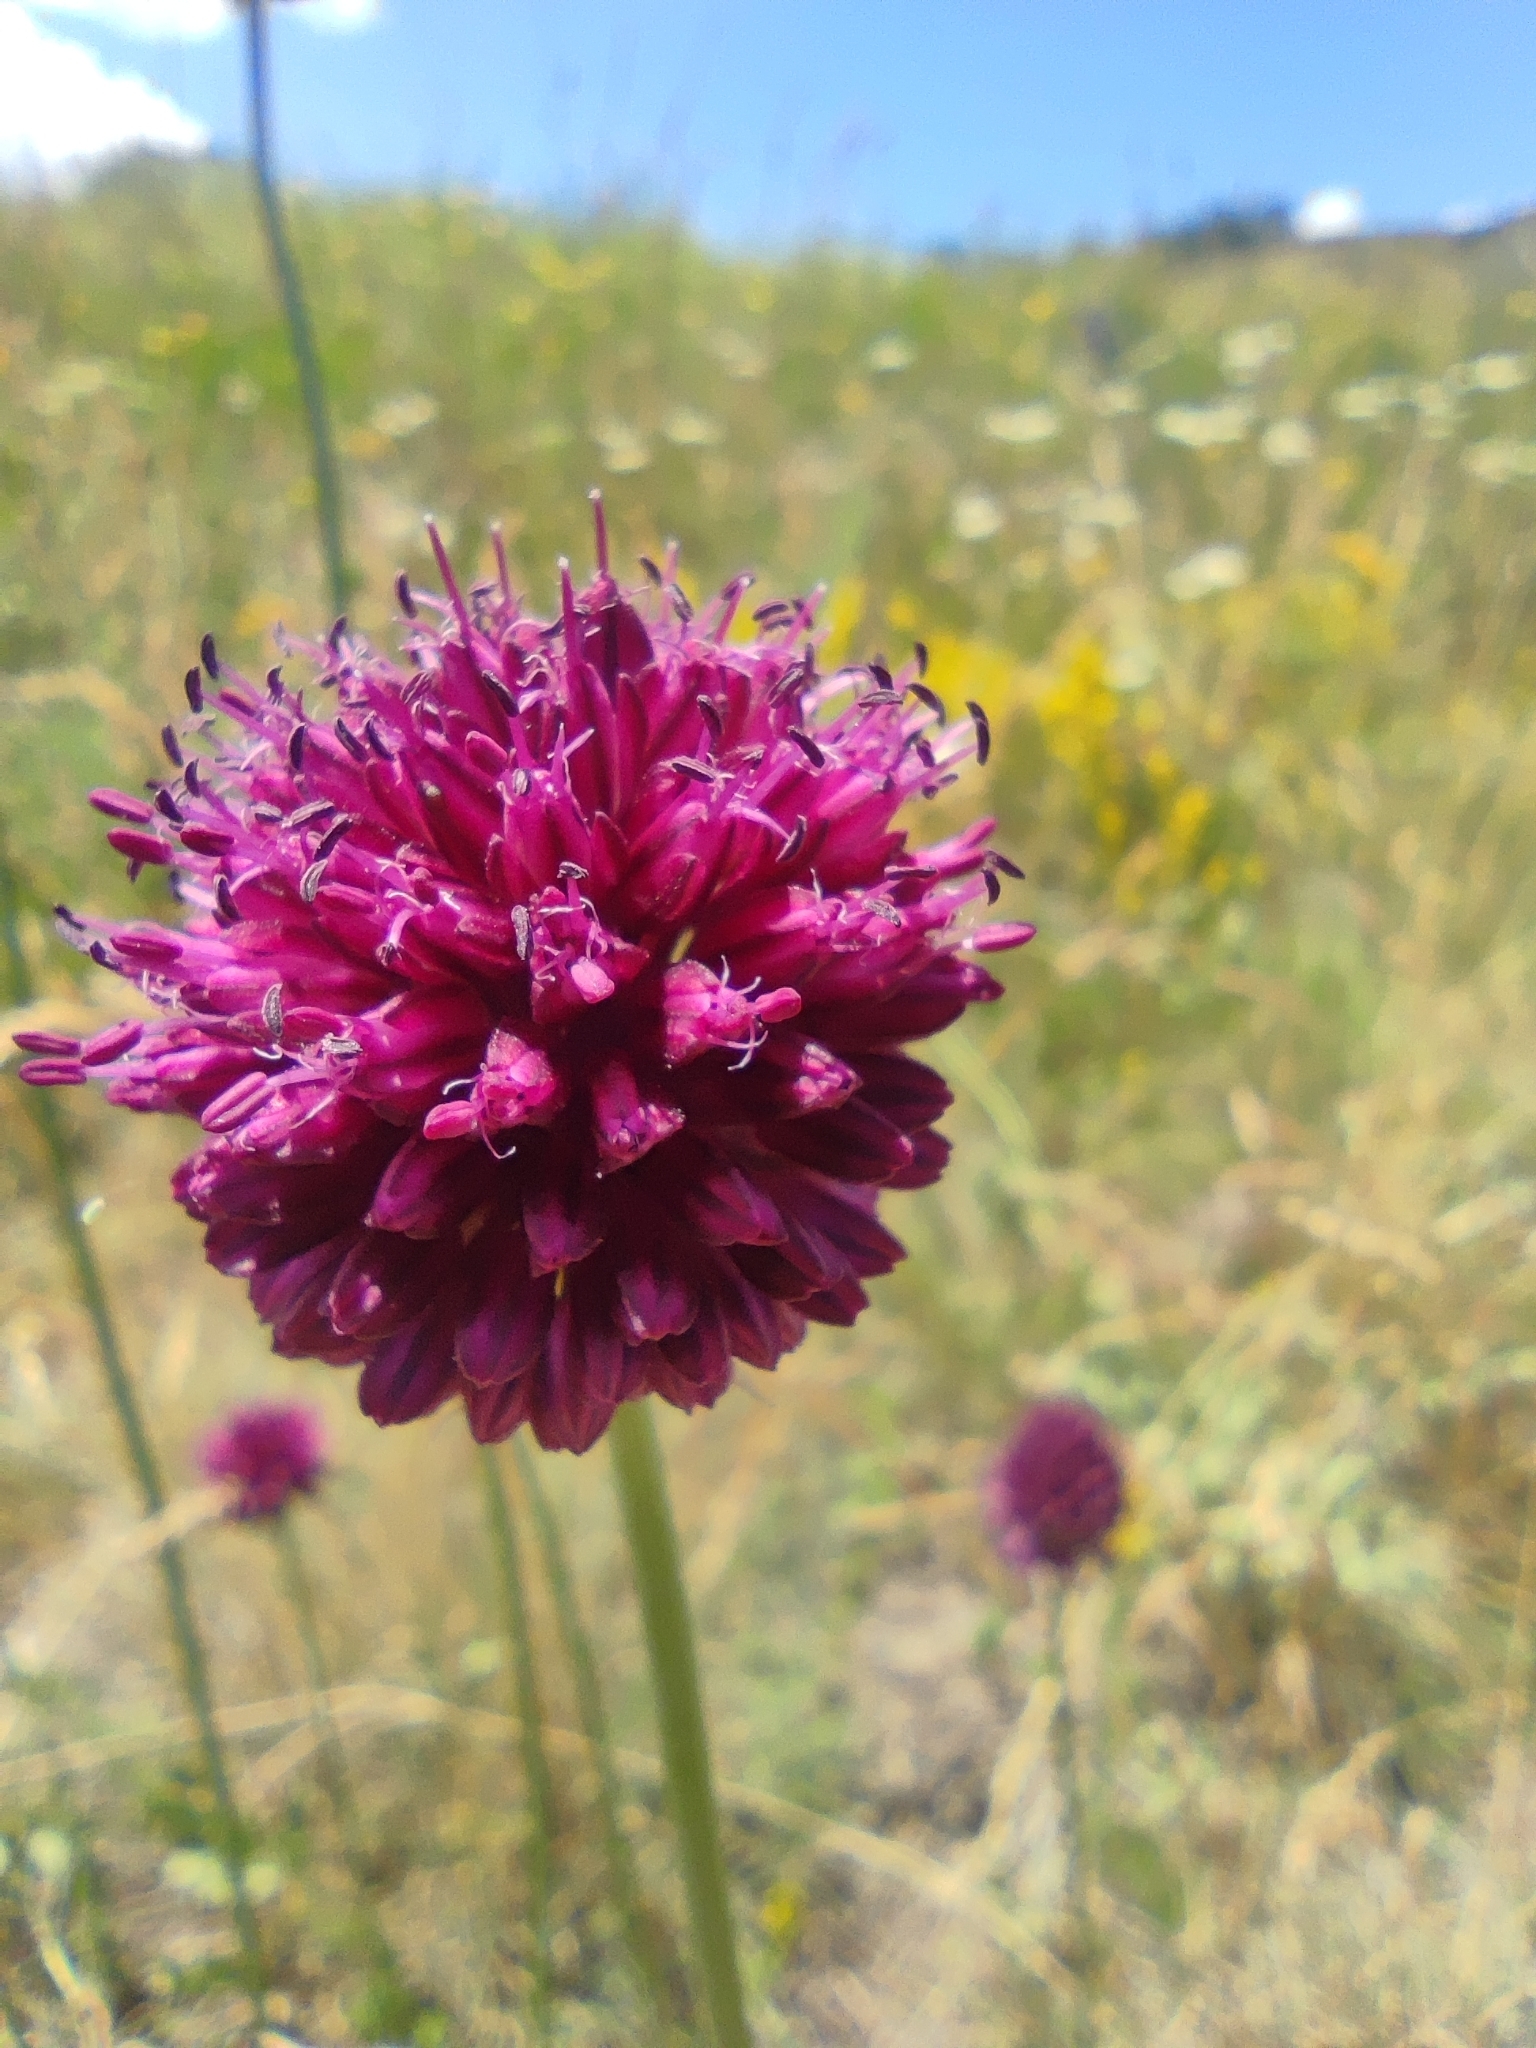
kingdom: Plantae
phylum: Tracheophyta
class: Liliopsida
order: Asparagales
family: Amaryllidaceae
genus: Allium
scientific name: Allium sphaerocephalon
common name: Round-headed leek
